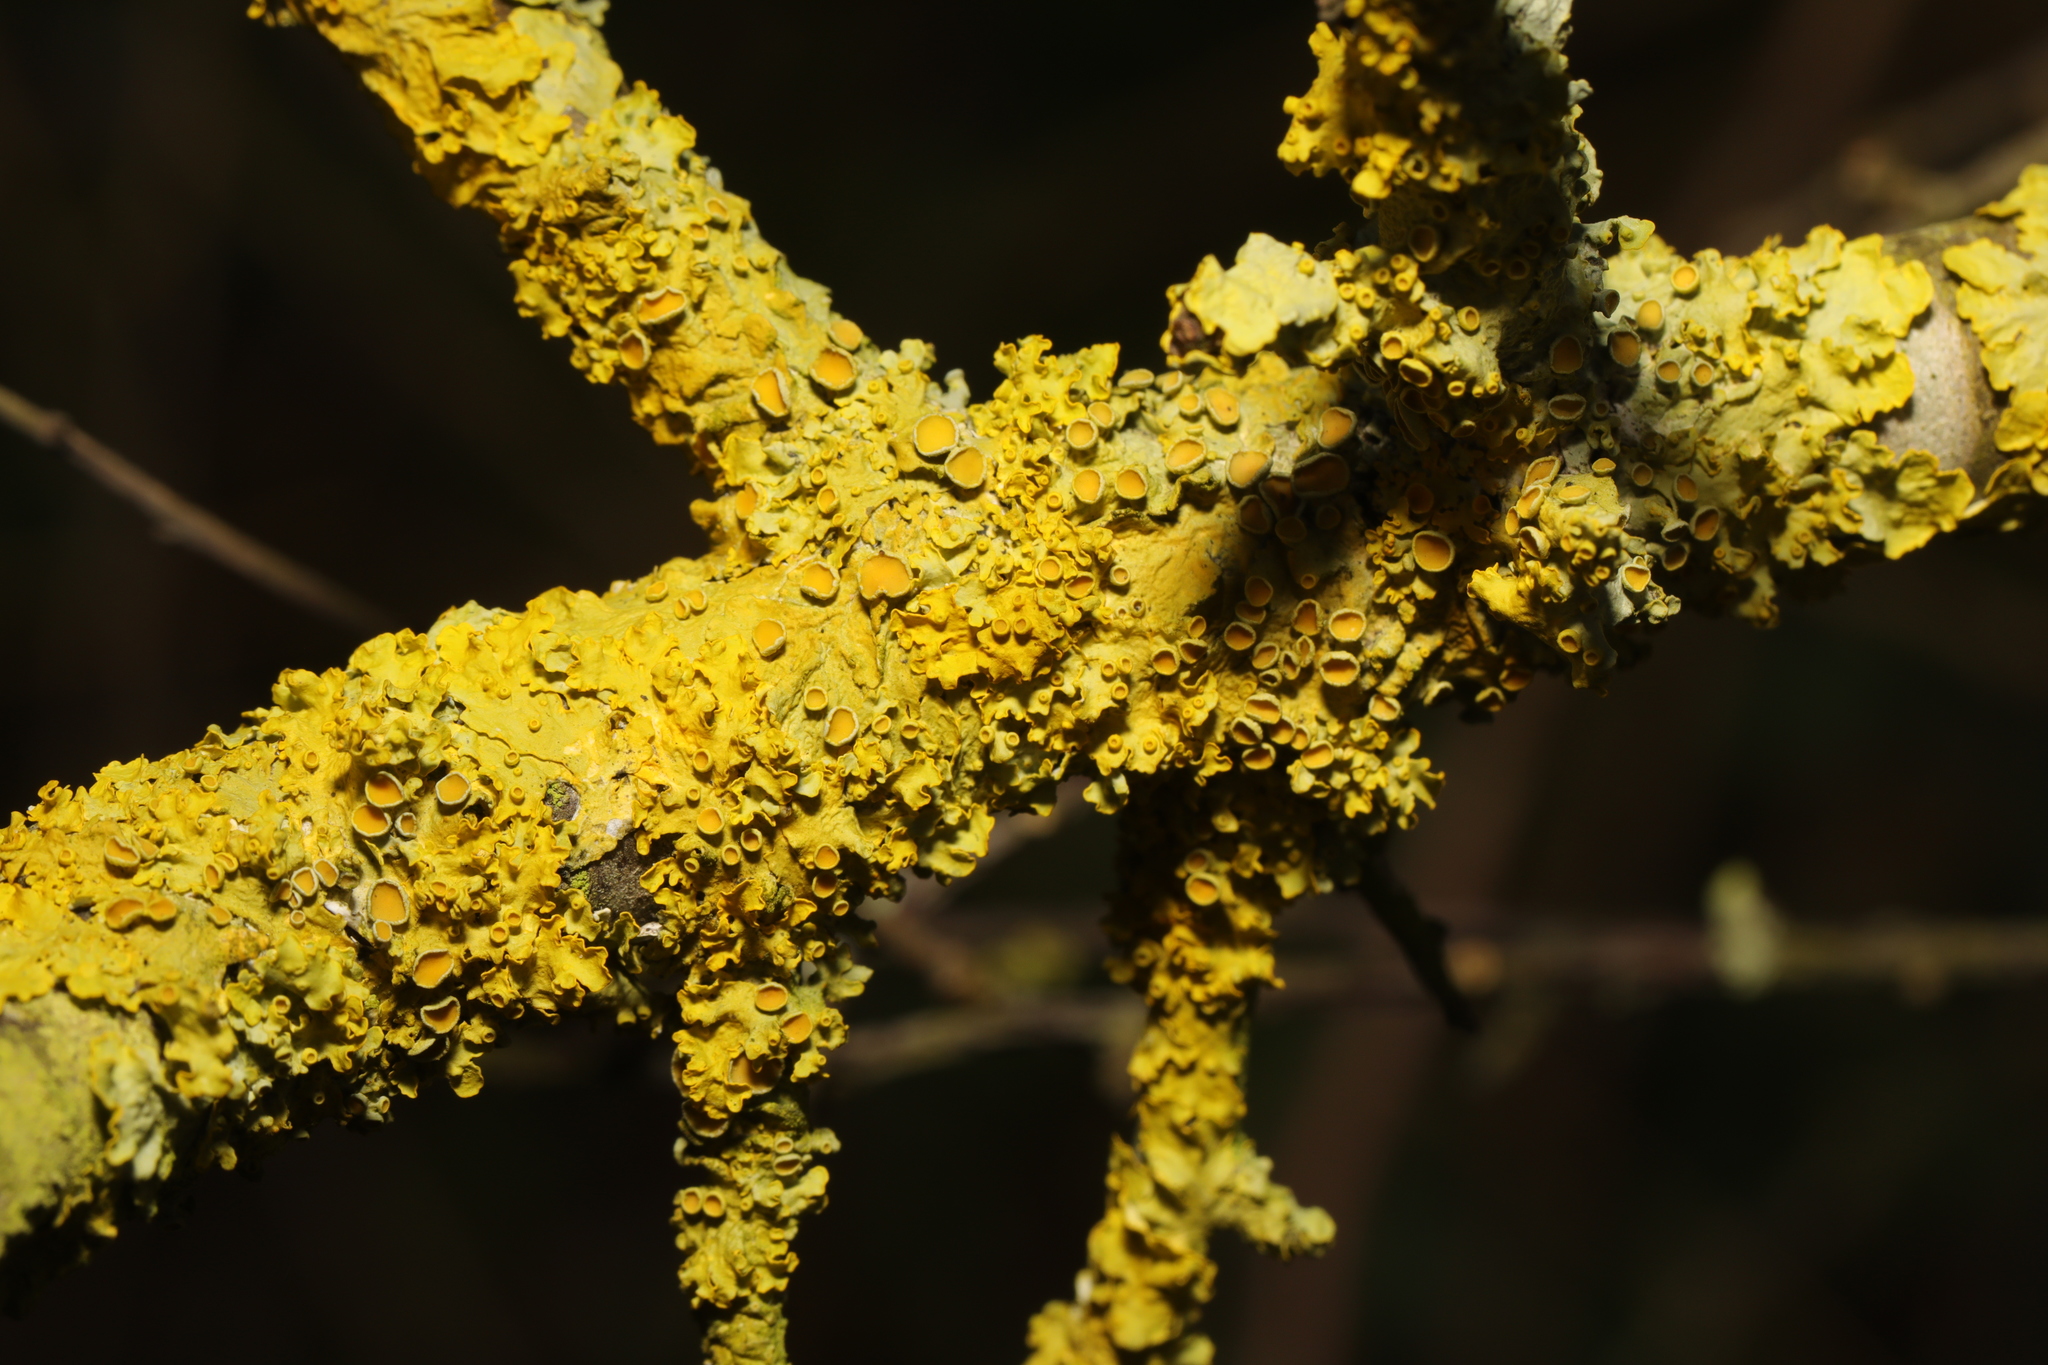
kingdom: Fungi
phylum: Ascomycota
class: Lecanoromycetes
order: Teloschistales
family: Teloschistaceae
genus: Xanthoria
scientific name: Xanthoria parietina
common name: Common orange lichen
